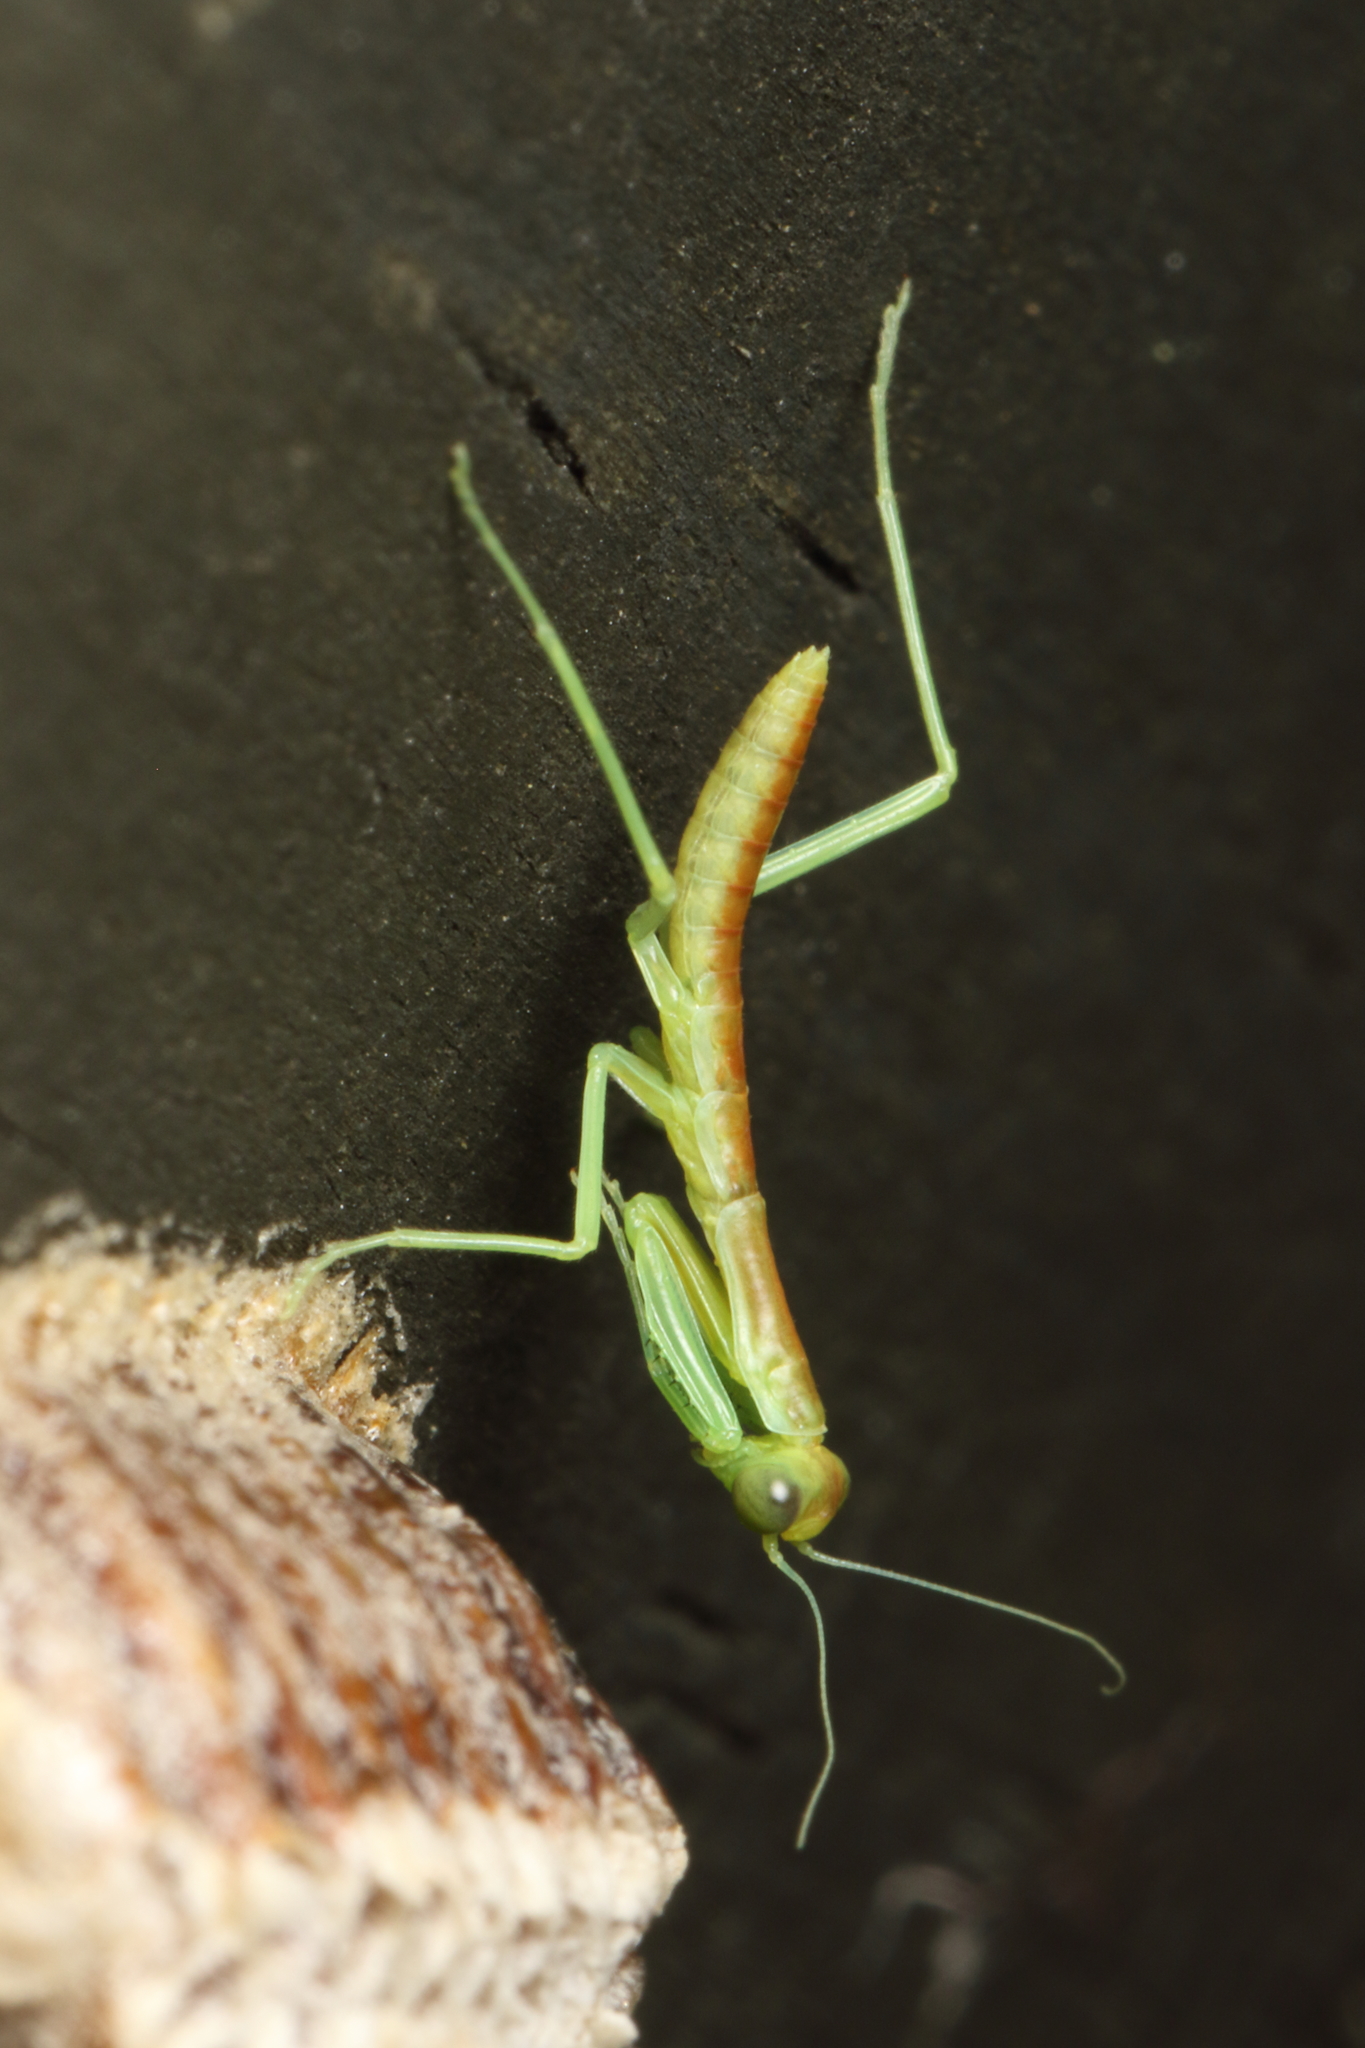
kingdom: Animalia
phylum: Arthropoda
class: Insecta
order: Mantodea
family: Mantidae
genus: Orthodera
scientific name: Orthodera novaezealandiae
